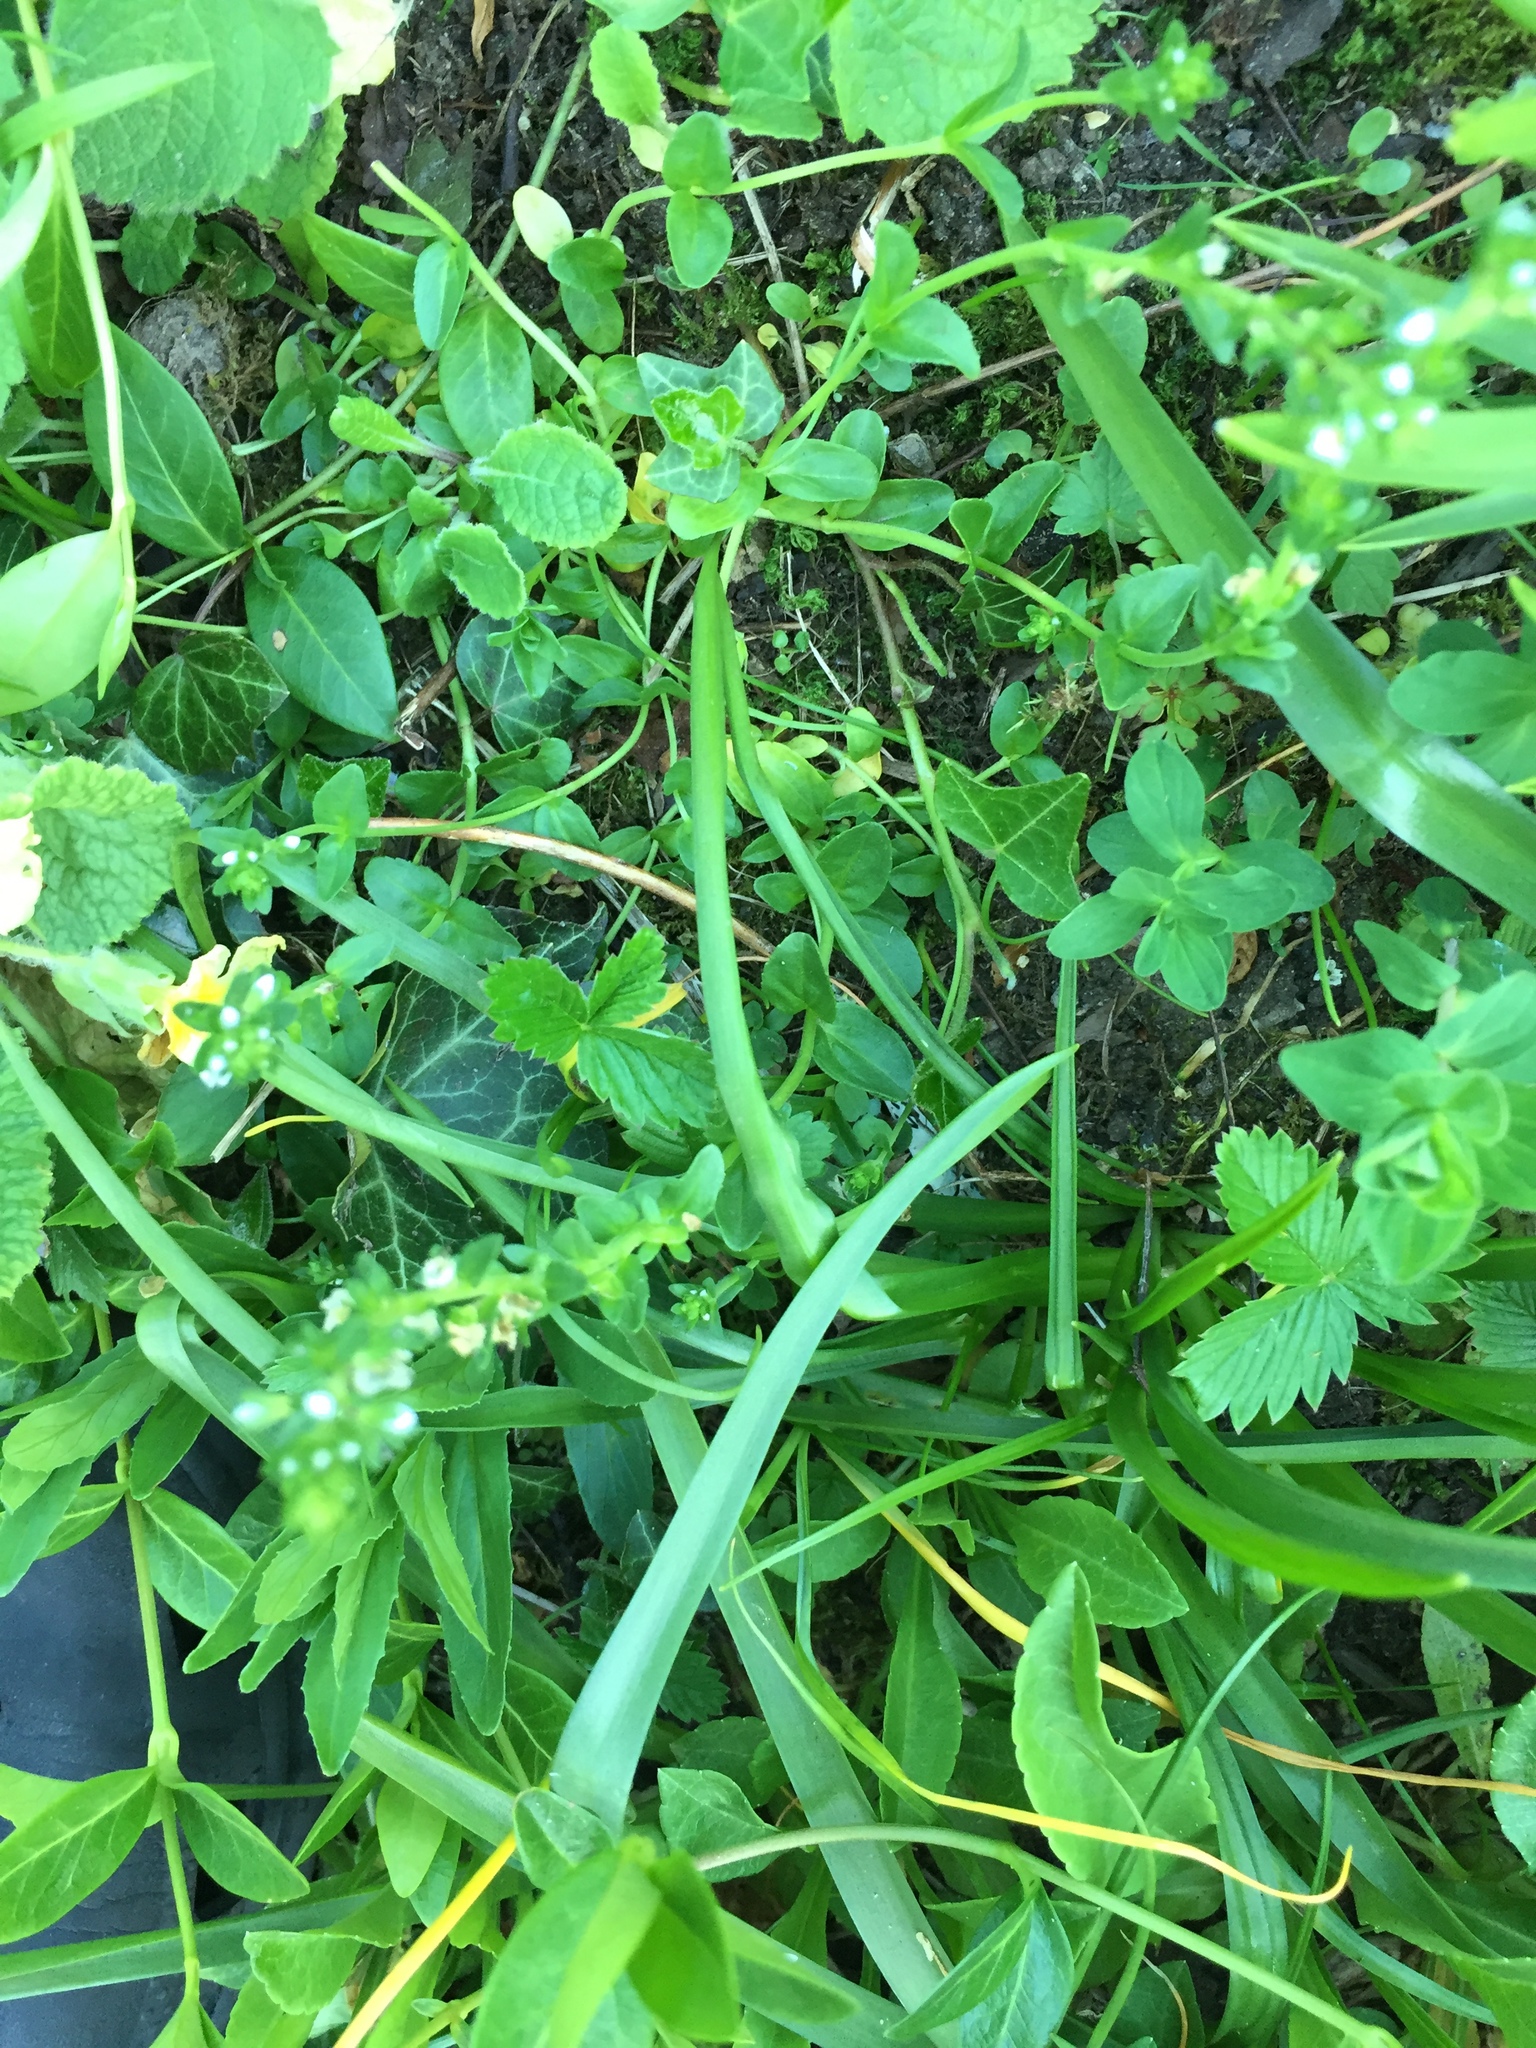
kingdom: Plantae
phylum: Tracheophyta
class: Magnoliopsida
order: Lamiales
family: Plantaginaceae
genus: Veronica
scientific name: Veronica serpyllifolia
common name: Thyme-leaved speedwell
